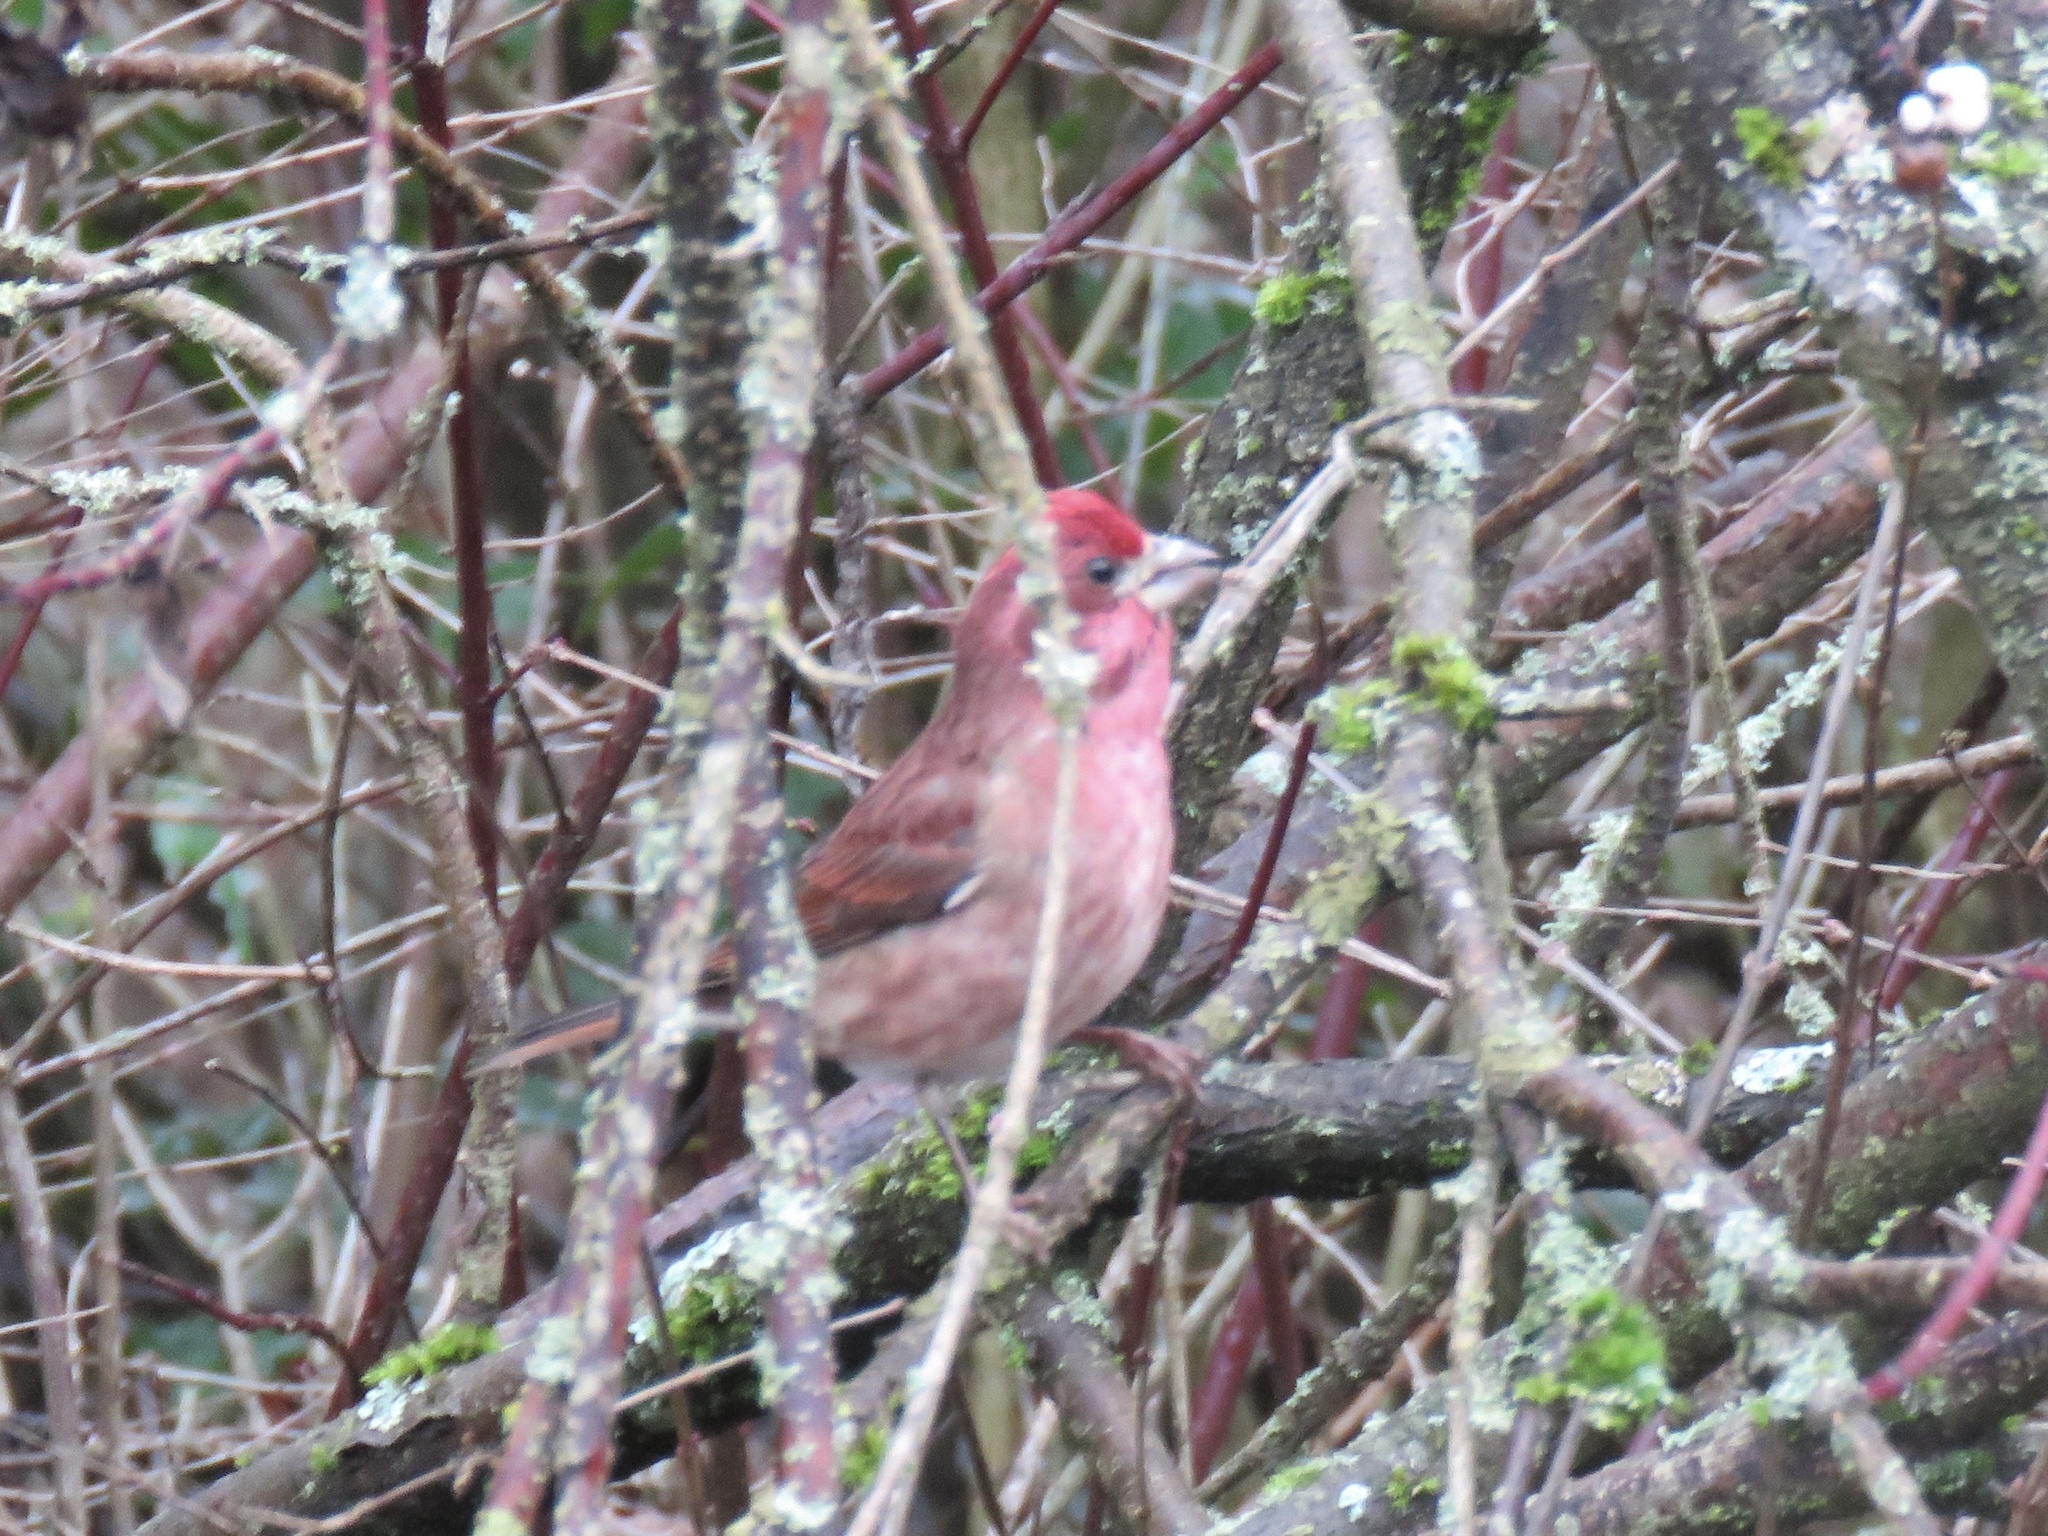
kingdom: Animalia
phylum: Chordata
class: Aves
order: Passeriformes
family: Fringillidae
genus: Haemorhous
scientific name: Haemorhous purpureus
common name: Purple finch
